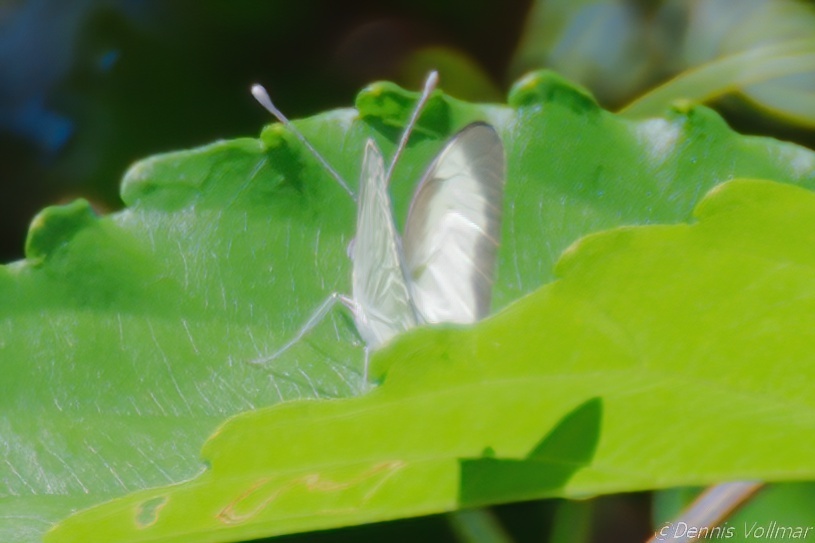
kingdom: Animalia
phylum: Arthropoda
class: Insecta
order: Lepidoptera
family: Pieridae
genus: Glutophrissa
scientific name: Glutophrissa drusilla
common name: Florida white
